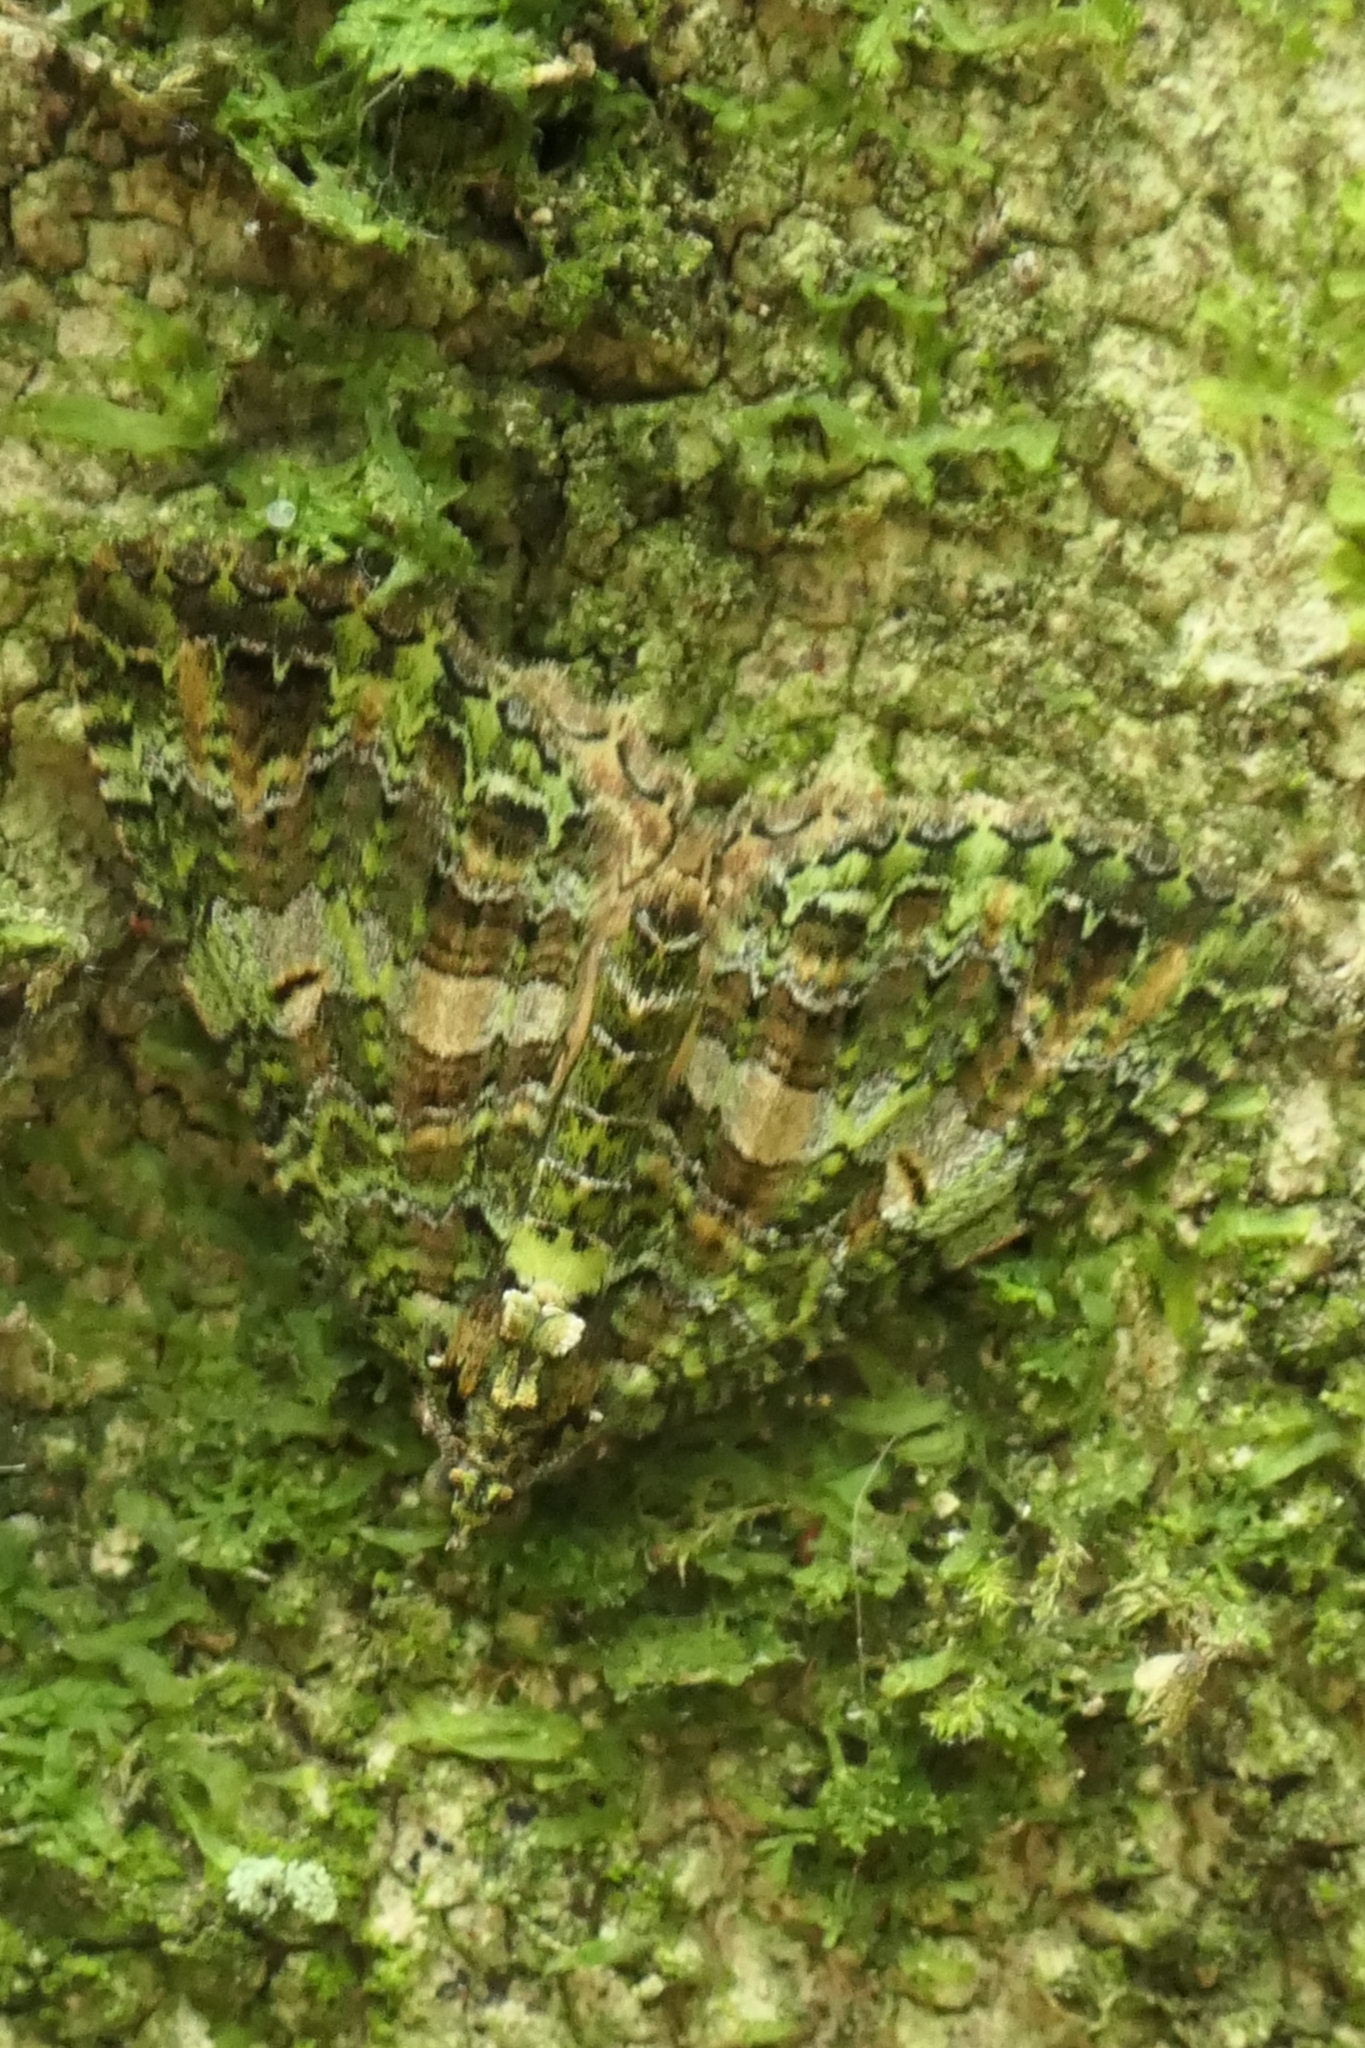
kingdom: Animalia
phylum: Arthropoda
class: Insecta
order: Lepidoptera
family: Geometridae
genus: Austrocidaria
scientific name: Austrocidaria similata
